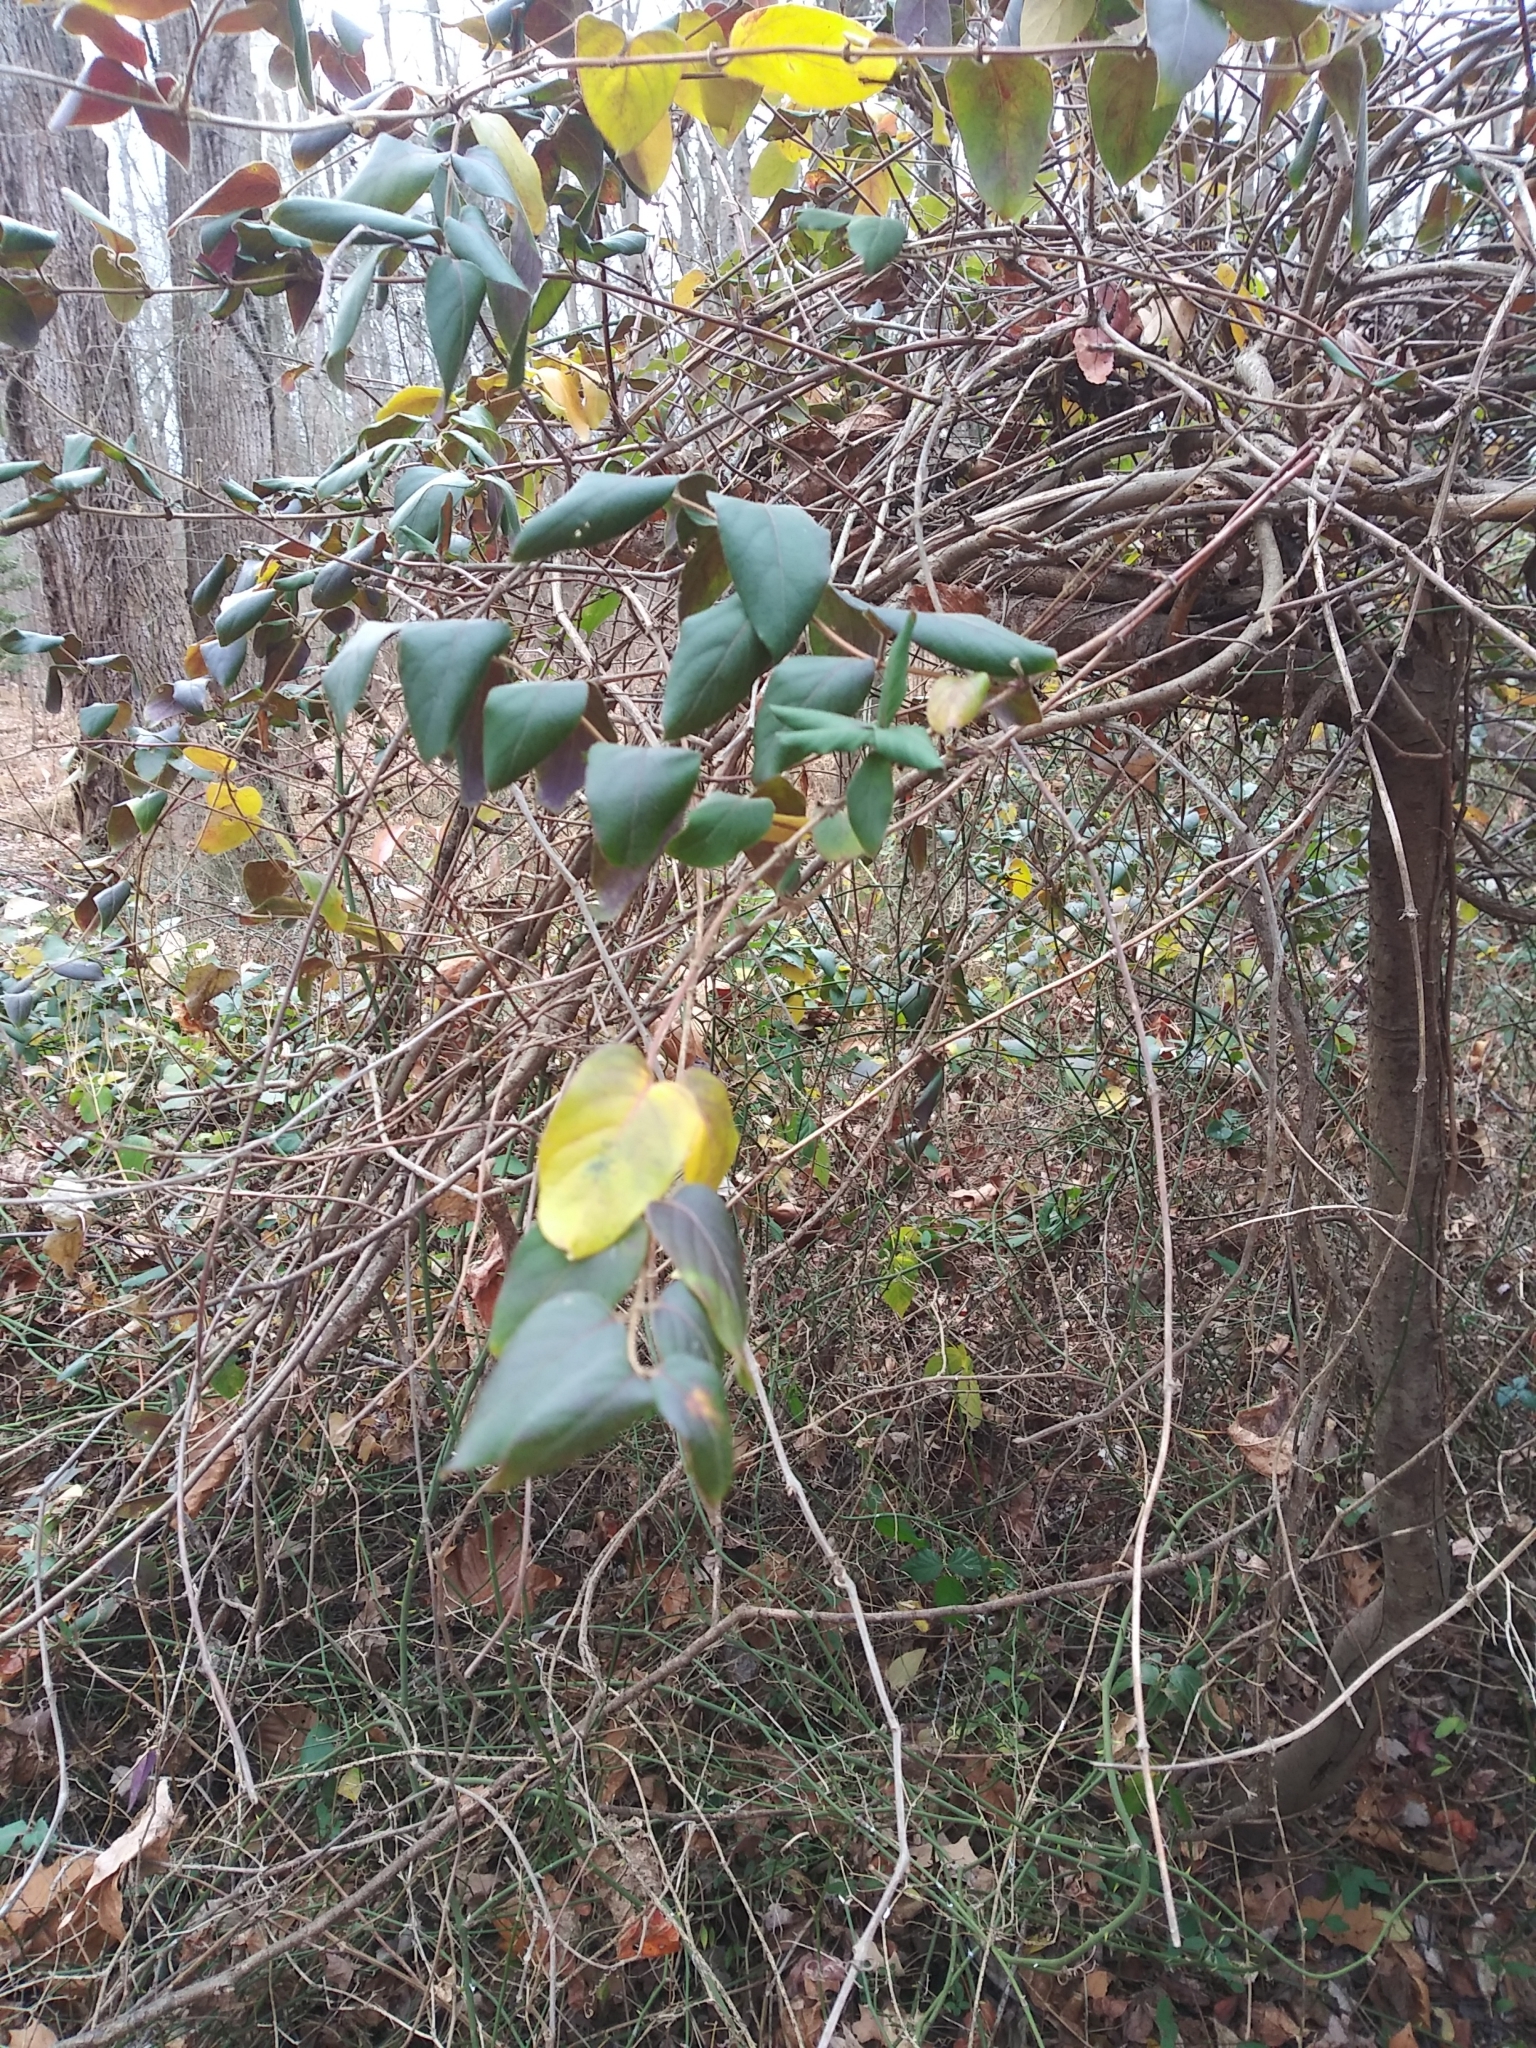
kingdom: Plantae
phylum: Tracheophyta
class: Magnoliopsida
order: Dipsacales
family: Caprifoliaceae
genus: Lonicera
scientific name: Lonicera japonica
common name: Japanese honeysuckle
